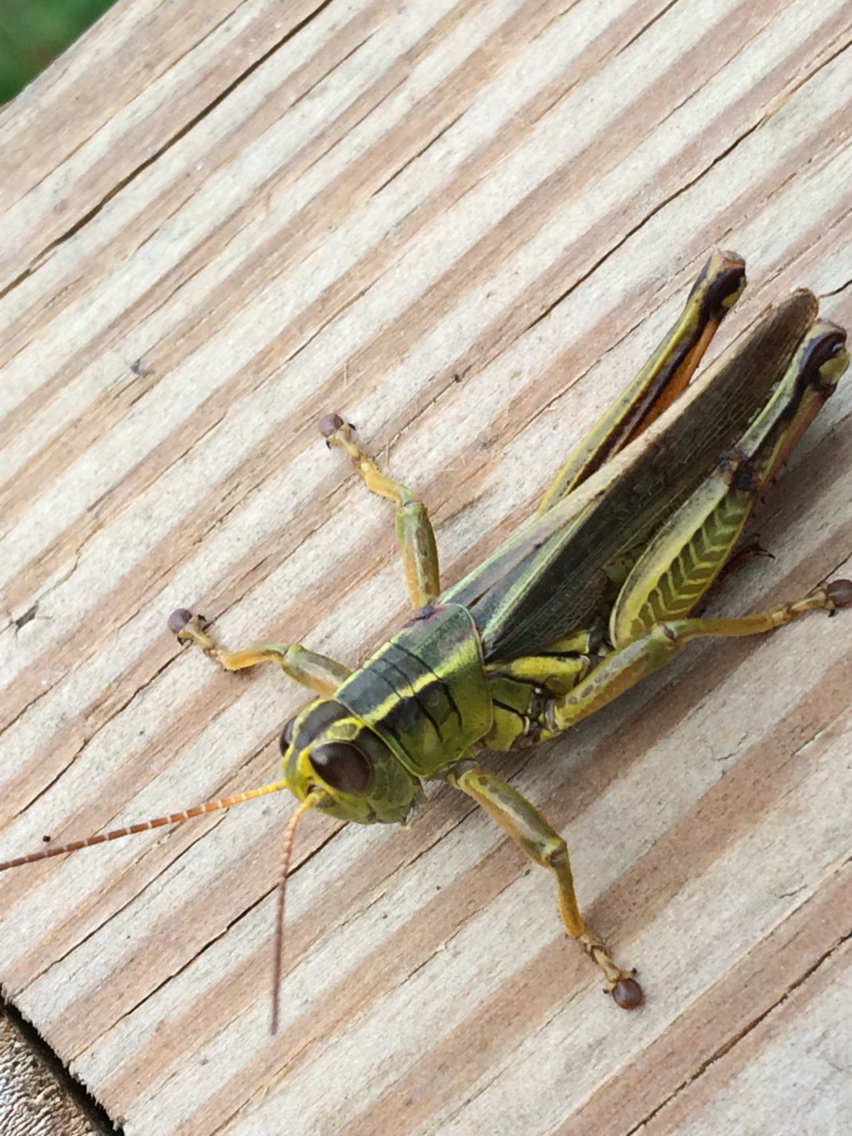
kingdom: Animalia
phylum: Arthropoda
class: Insecta
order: Orthoptera
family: Acrididae
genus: Melanoplus
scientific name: Melanoplus bivittatus
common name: Two-striped grasshopper
